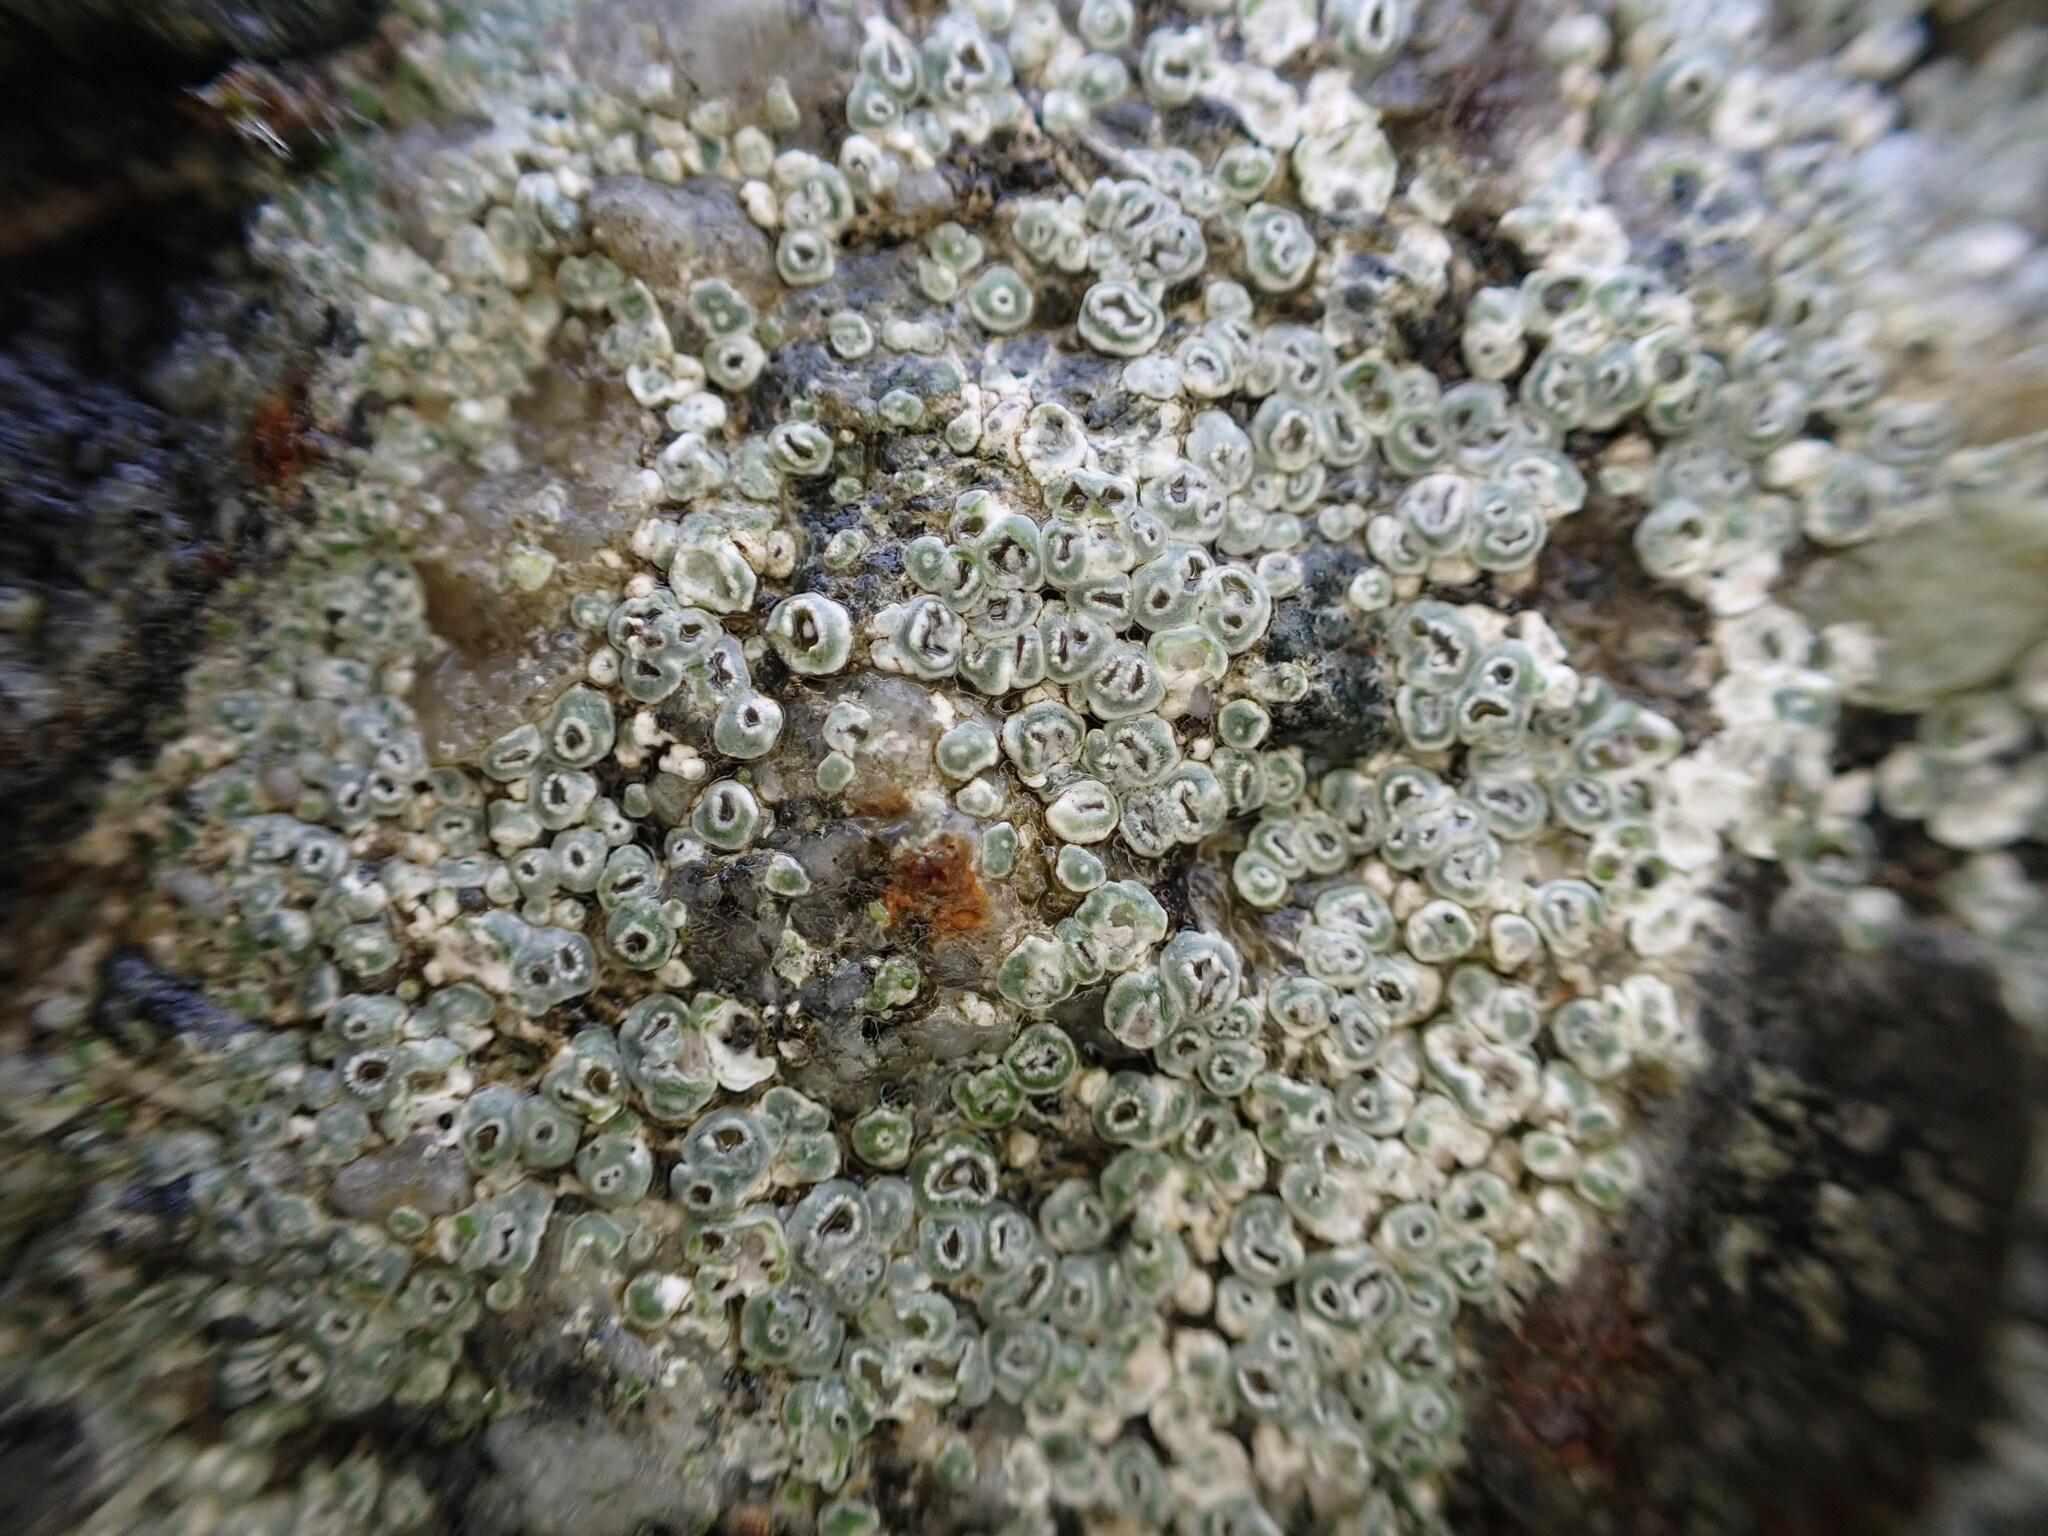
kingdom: Fungi
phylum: Ascomycota
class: Lecanoromycetes
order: Pertusariales
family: Megasporaceae
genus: Circinaria
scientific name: Circinaria contorta
